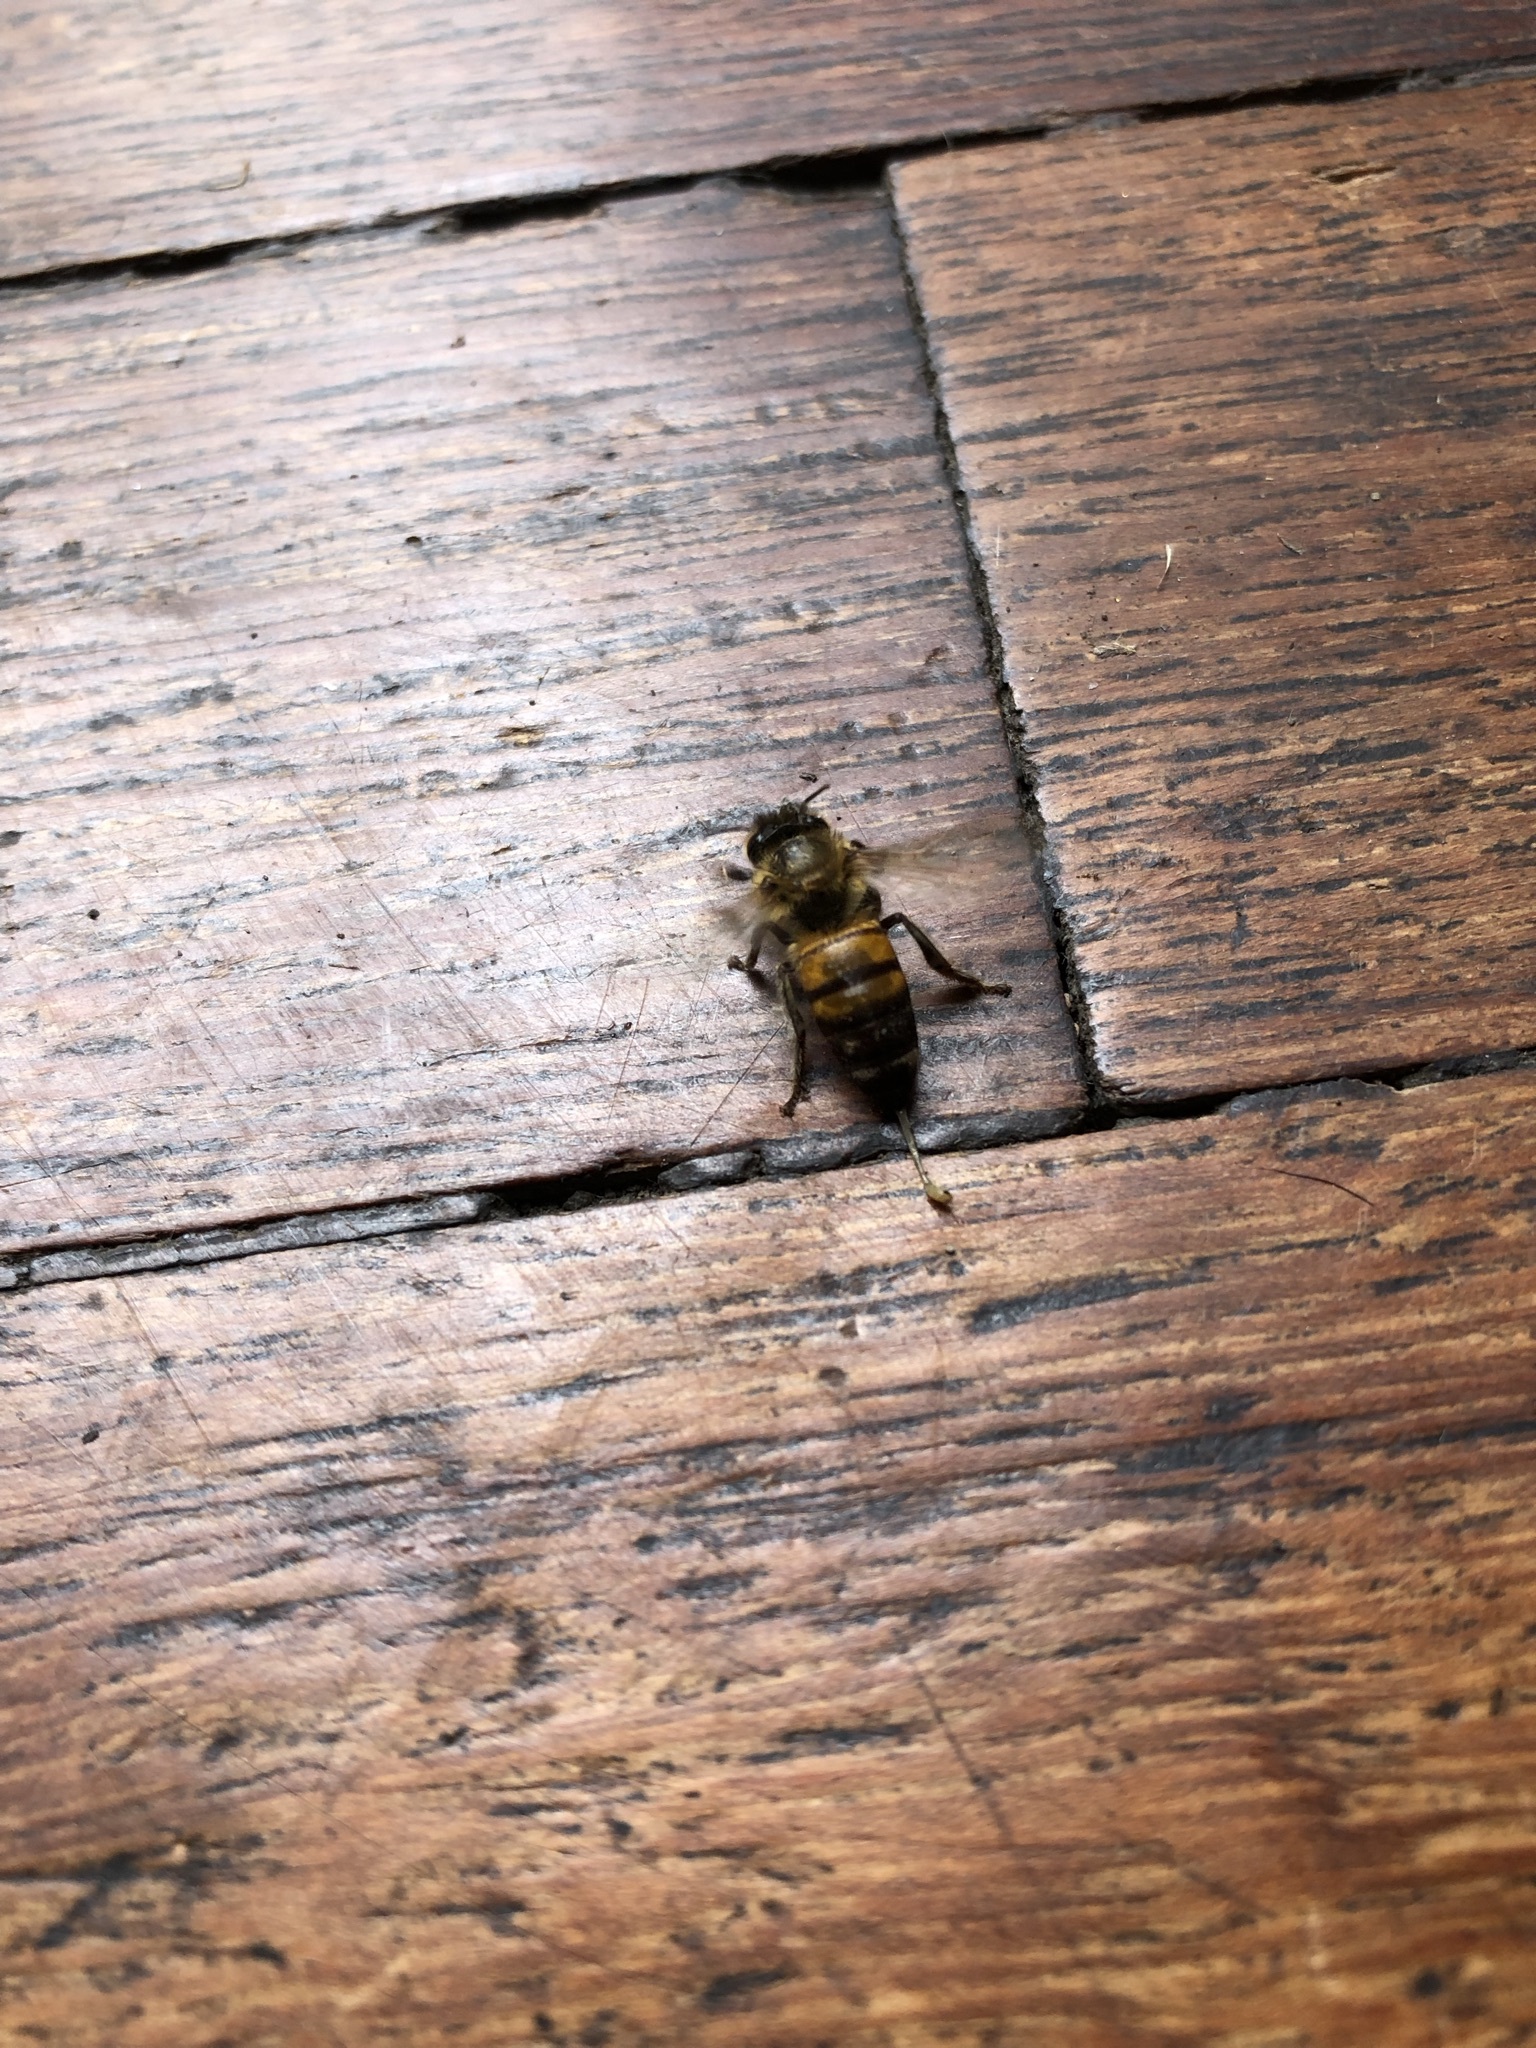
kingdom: Animalia
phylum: Arthropoda
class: Insecta
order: Hymenoptera
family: Apidae
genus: Apis
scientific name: Apis mellifera
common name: Honey bee
